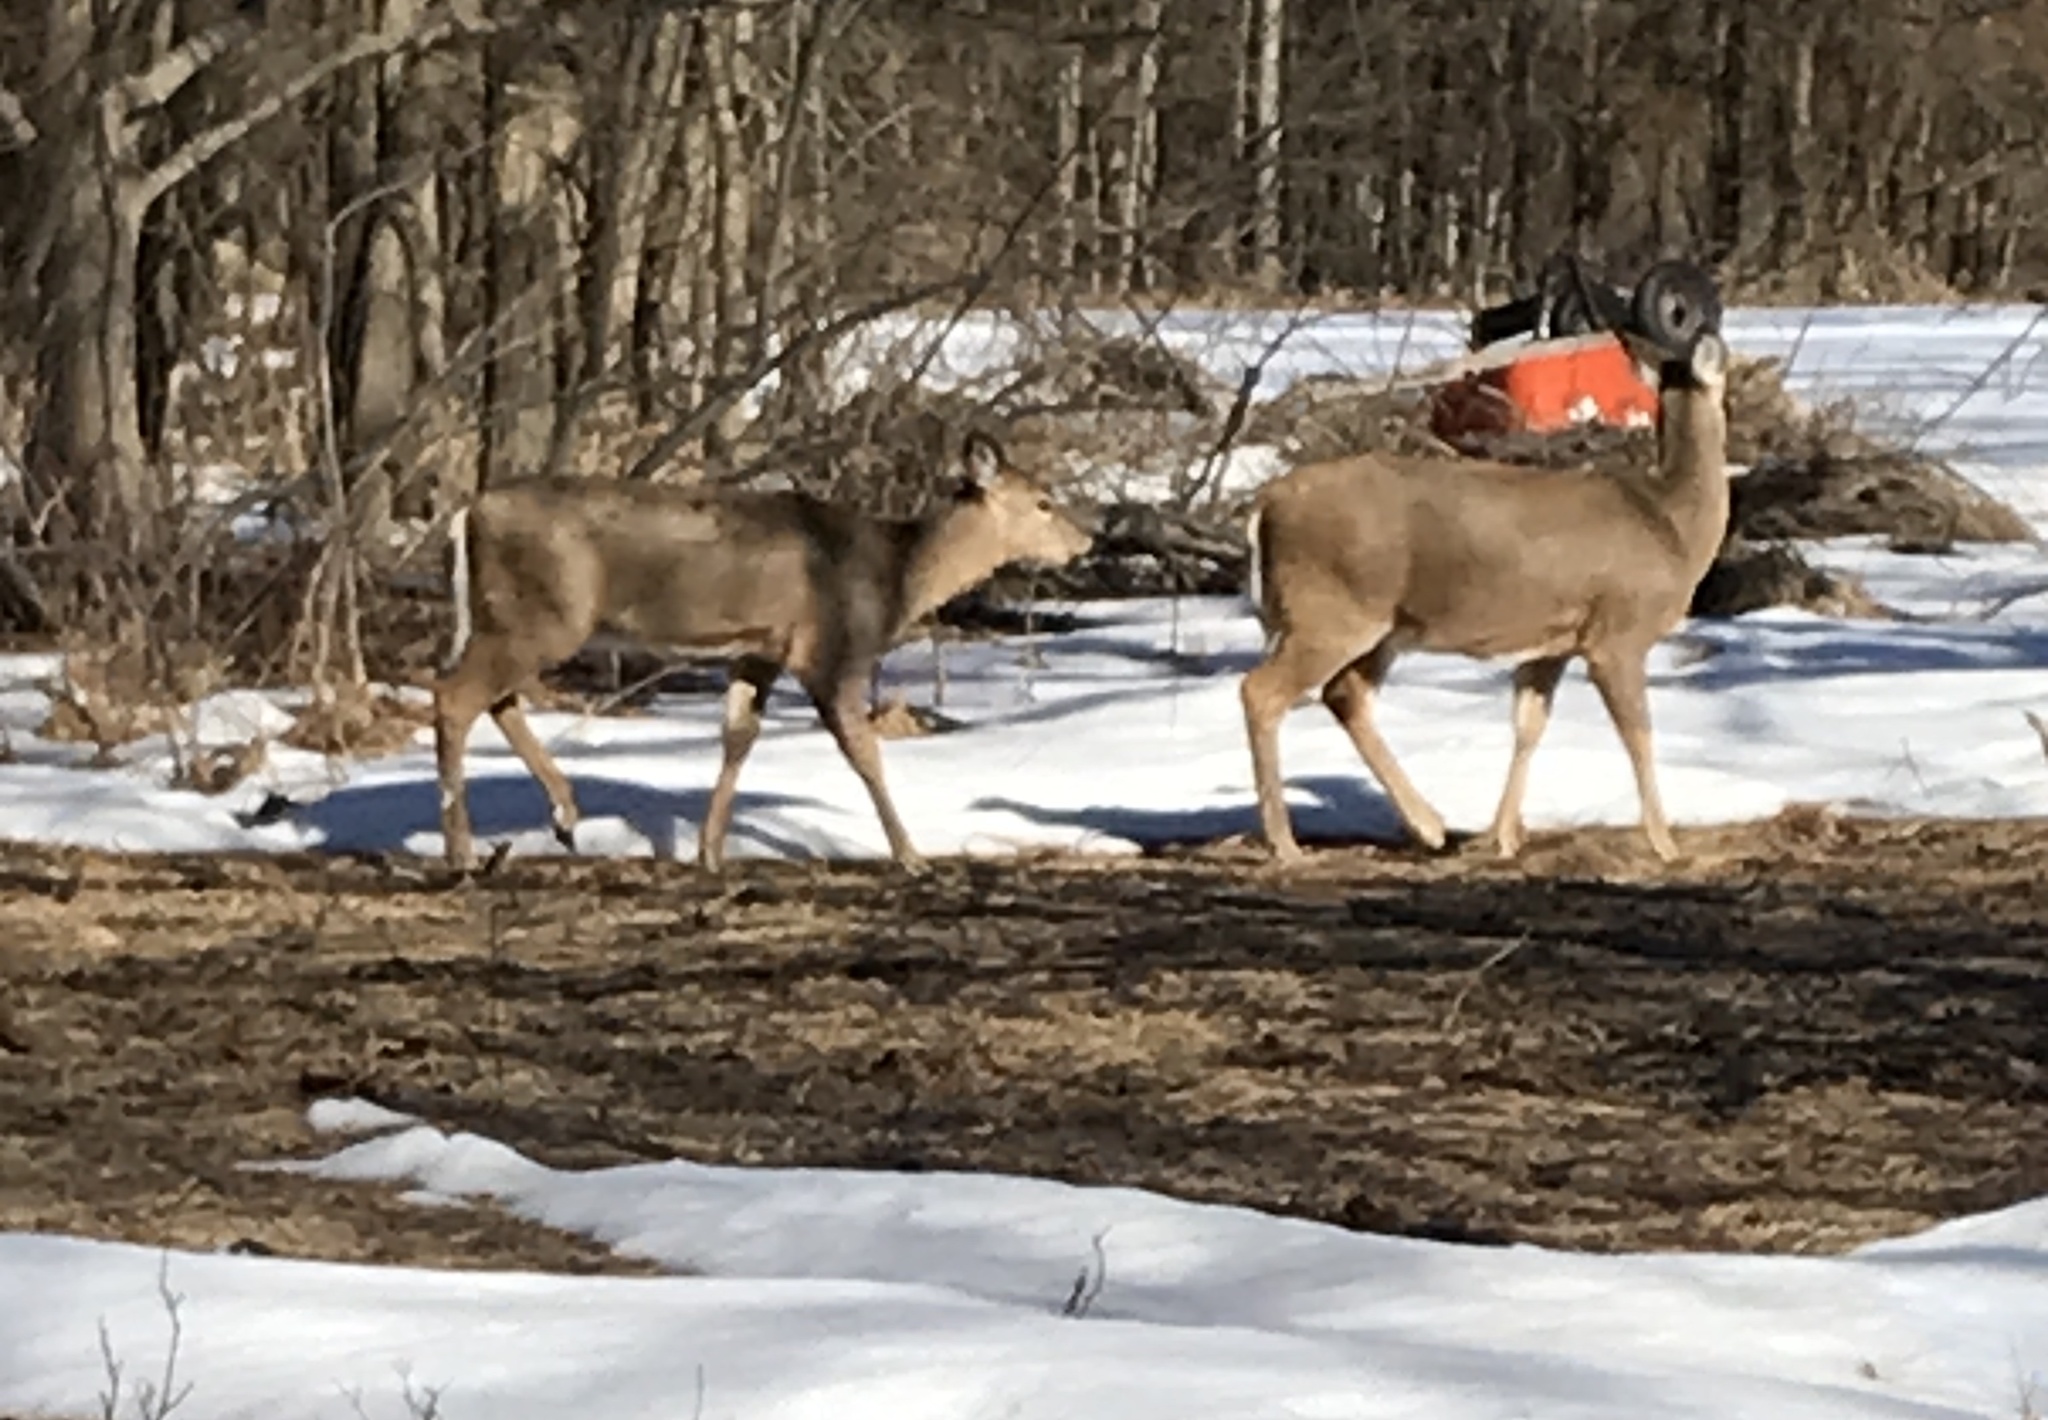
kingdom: Animalia
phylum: Chordata
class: Mammalia
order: Artiodactyla
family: Cervidae
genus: Odocoileus
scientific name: Odocoileus virginianus
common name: White-tailed deer
